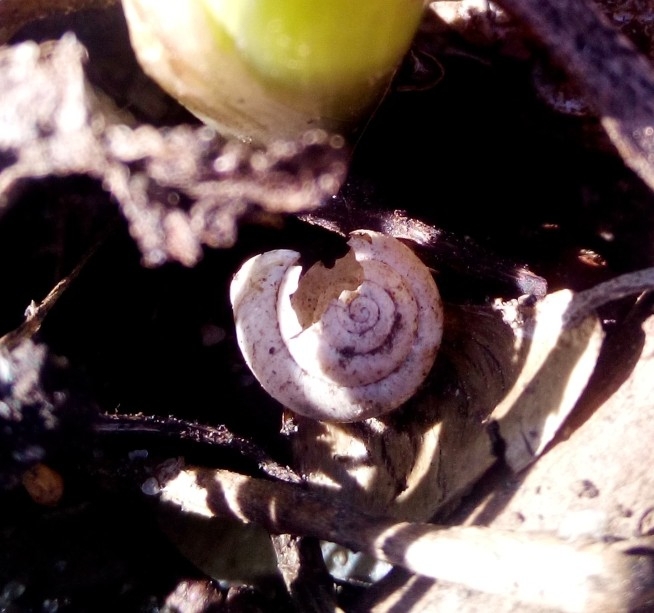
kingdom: Animalia
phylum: Mollusca
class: Gastropoda
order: Stylommatophora
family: Camaenidae
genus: Fruticicola
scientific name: Fruticicola fruticum
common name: Bush snail
